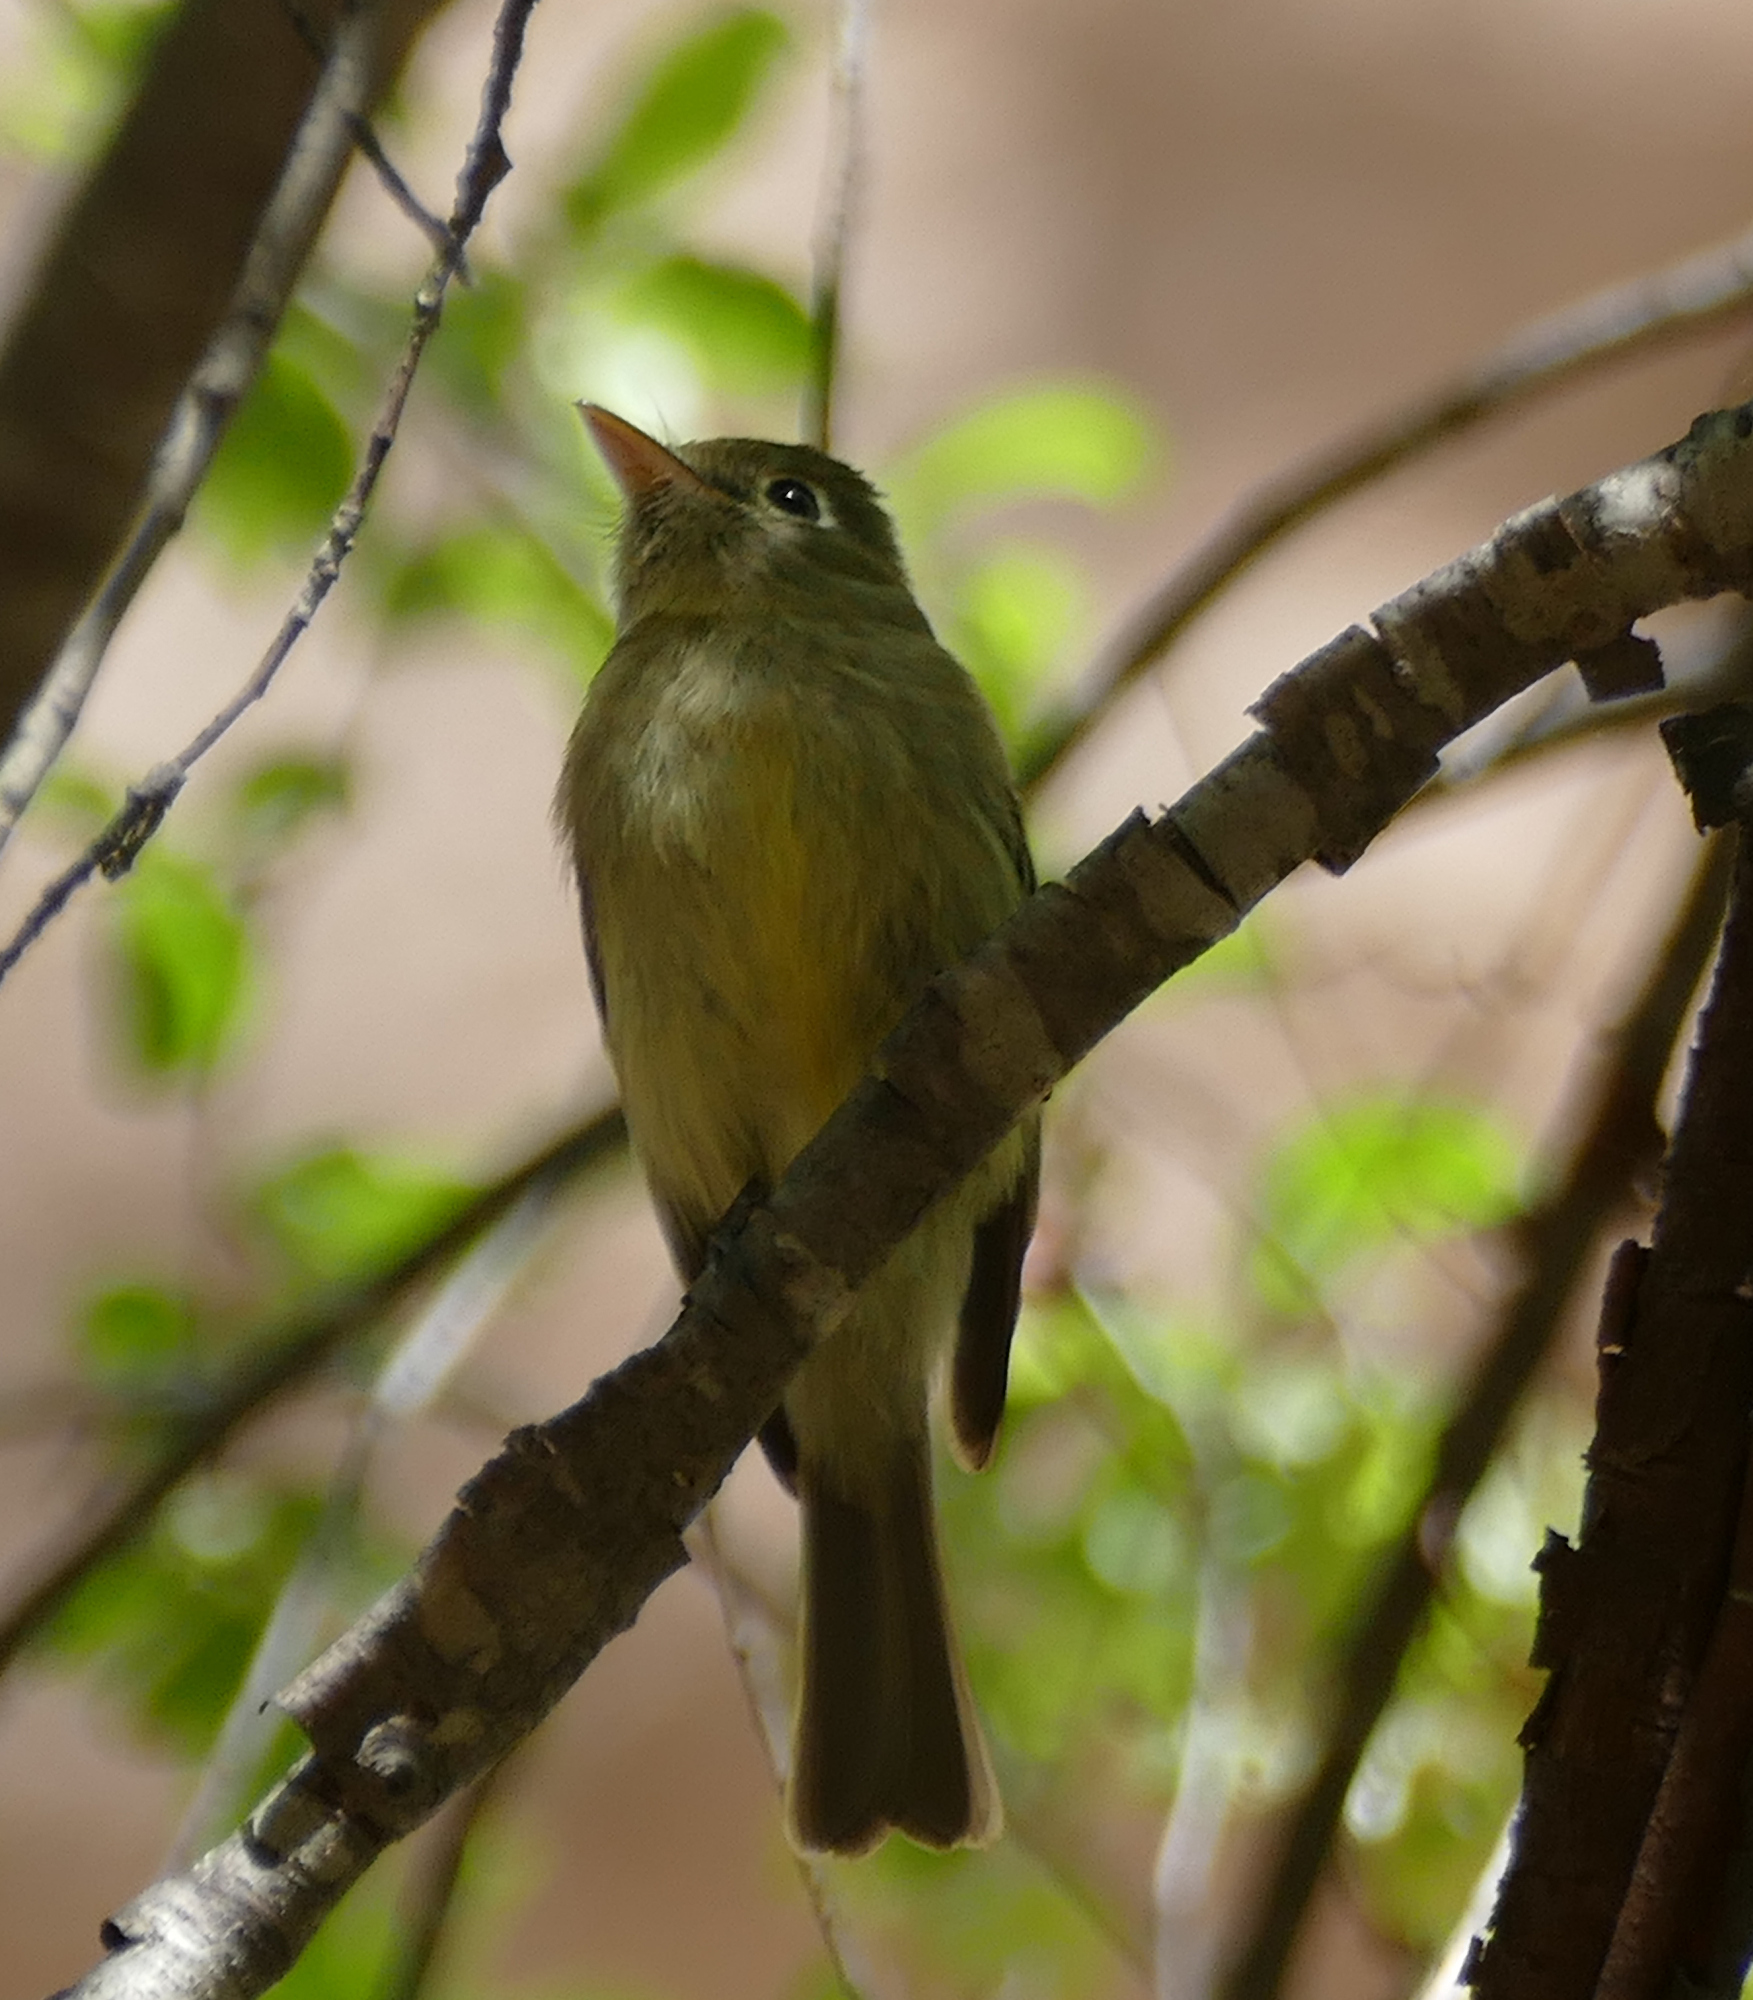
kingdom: Animalia
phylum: Chordata
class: Aves
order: Passeriformes
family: Tyrannidae
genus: Empidonax
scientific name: Empidonax difficilis
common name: Pacific-slope flycatcher
